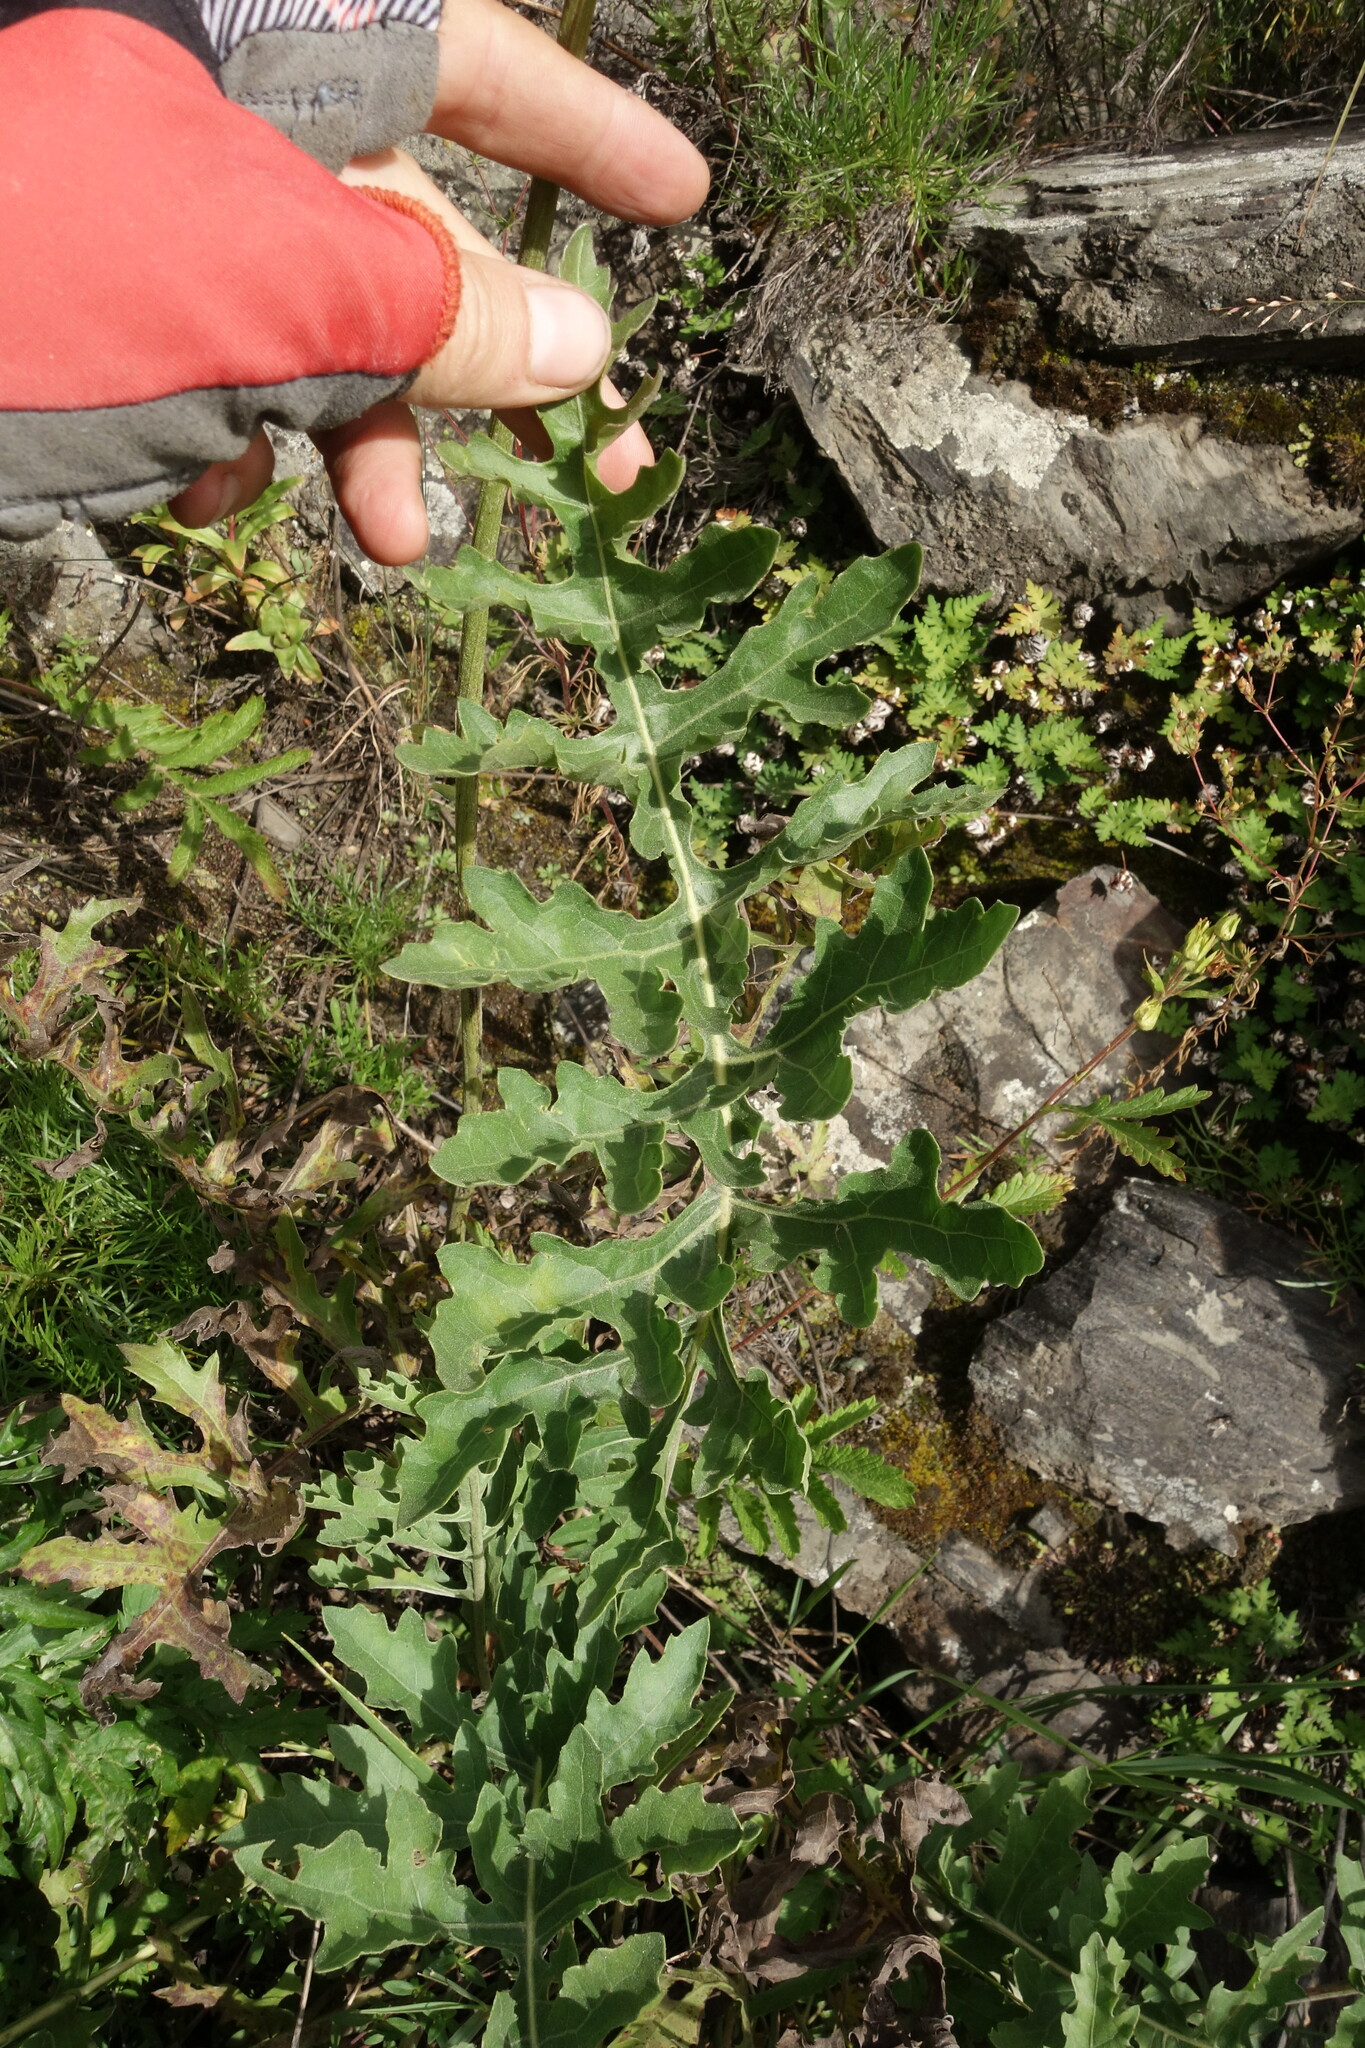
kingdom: Plantae
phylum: Tracheophyta
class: Magnoliopsida
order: Asterales
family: Asteraceae
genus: Leuzea
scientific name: Leuzea uniflora
